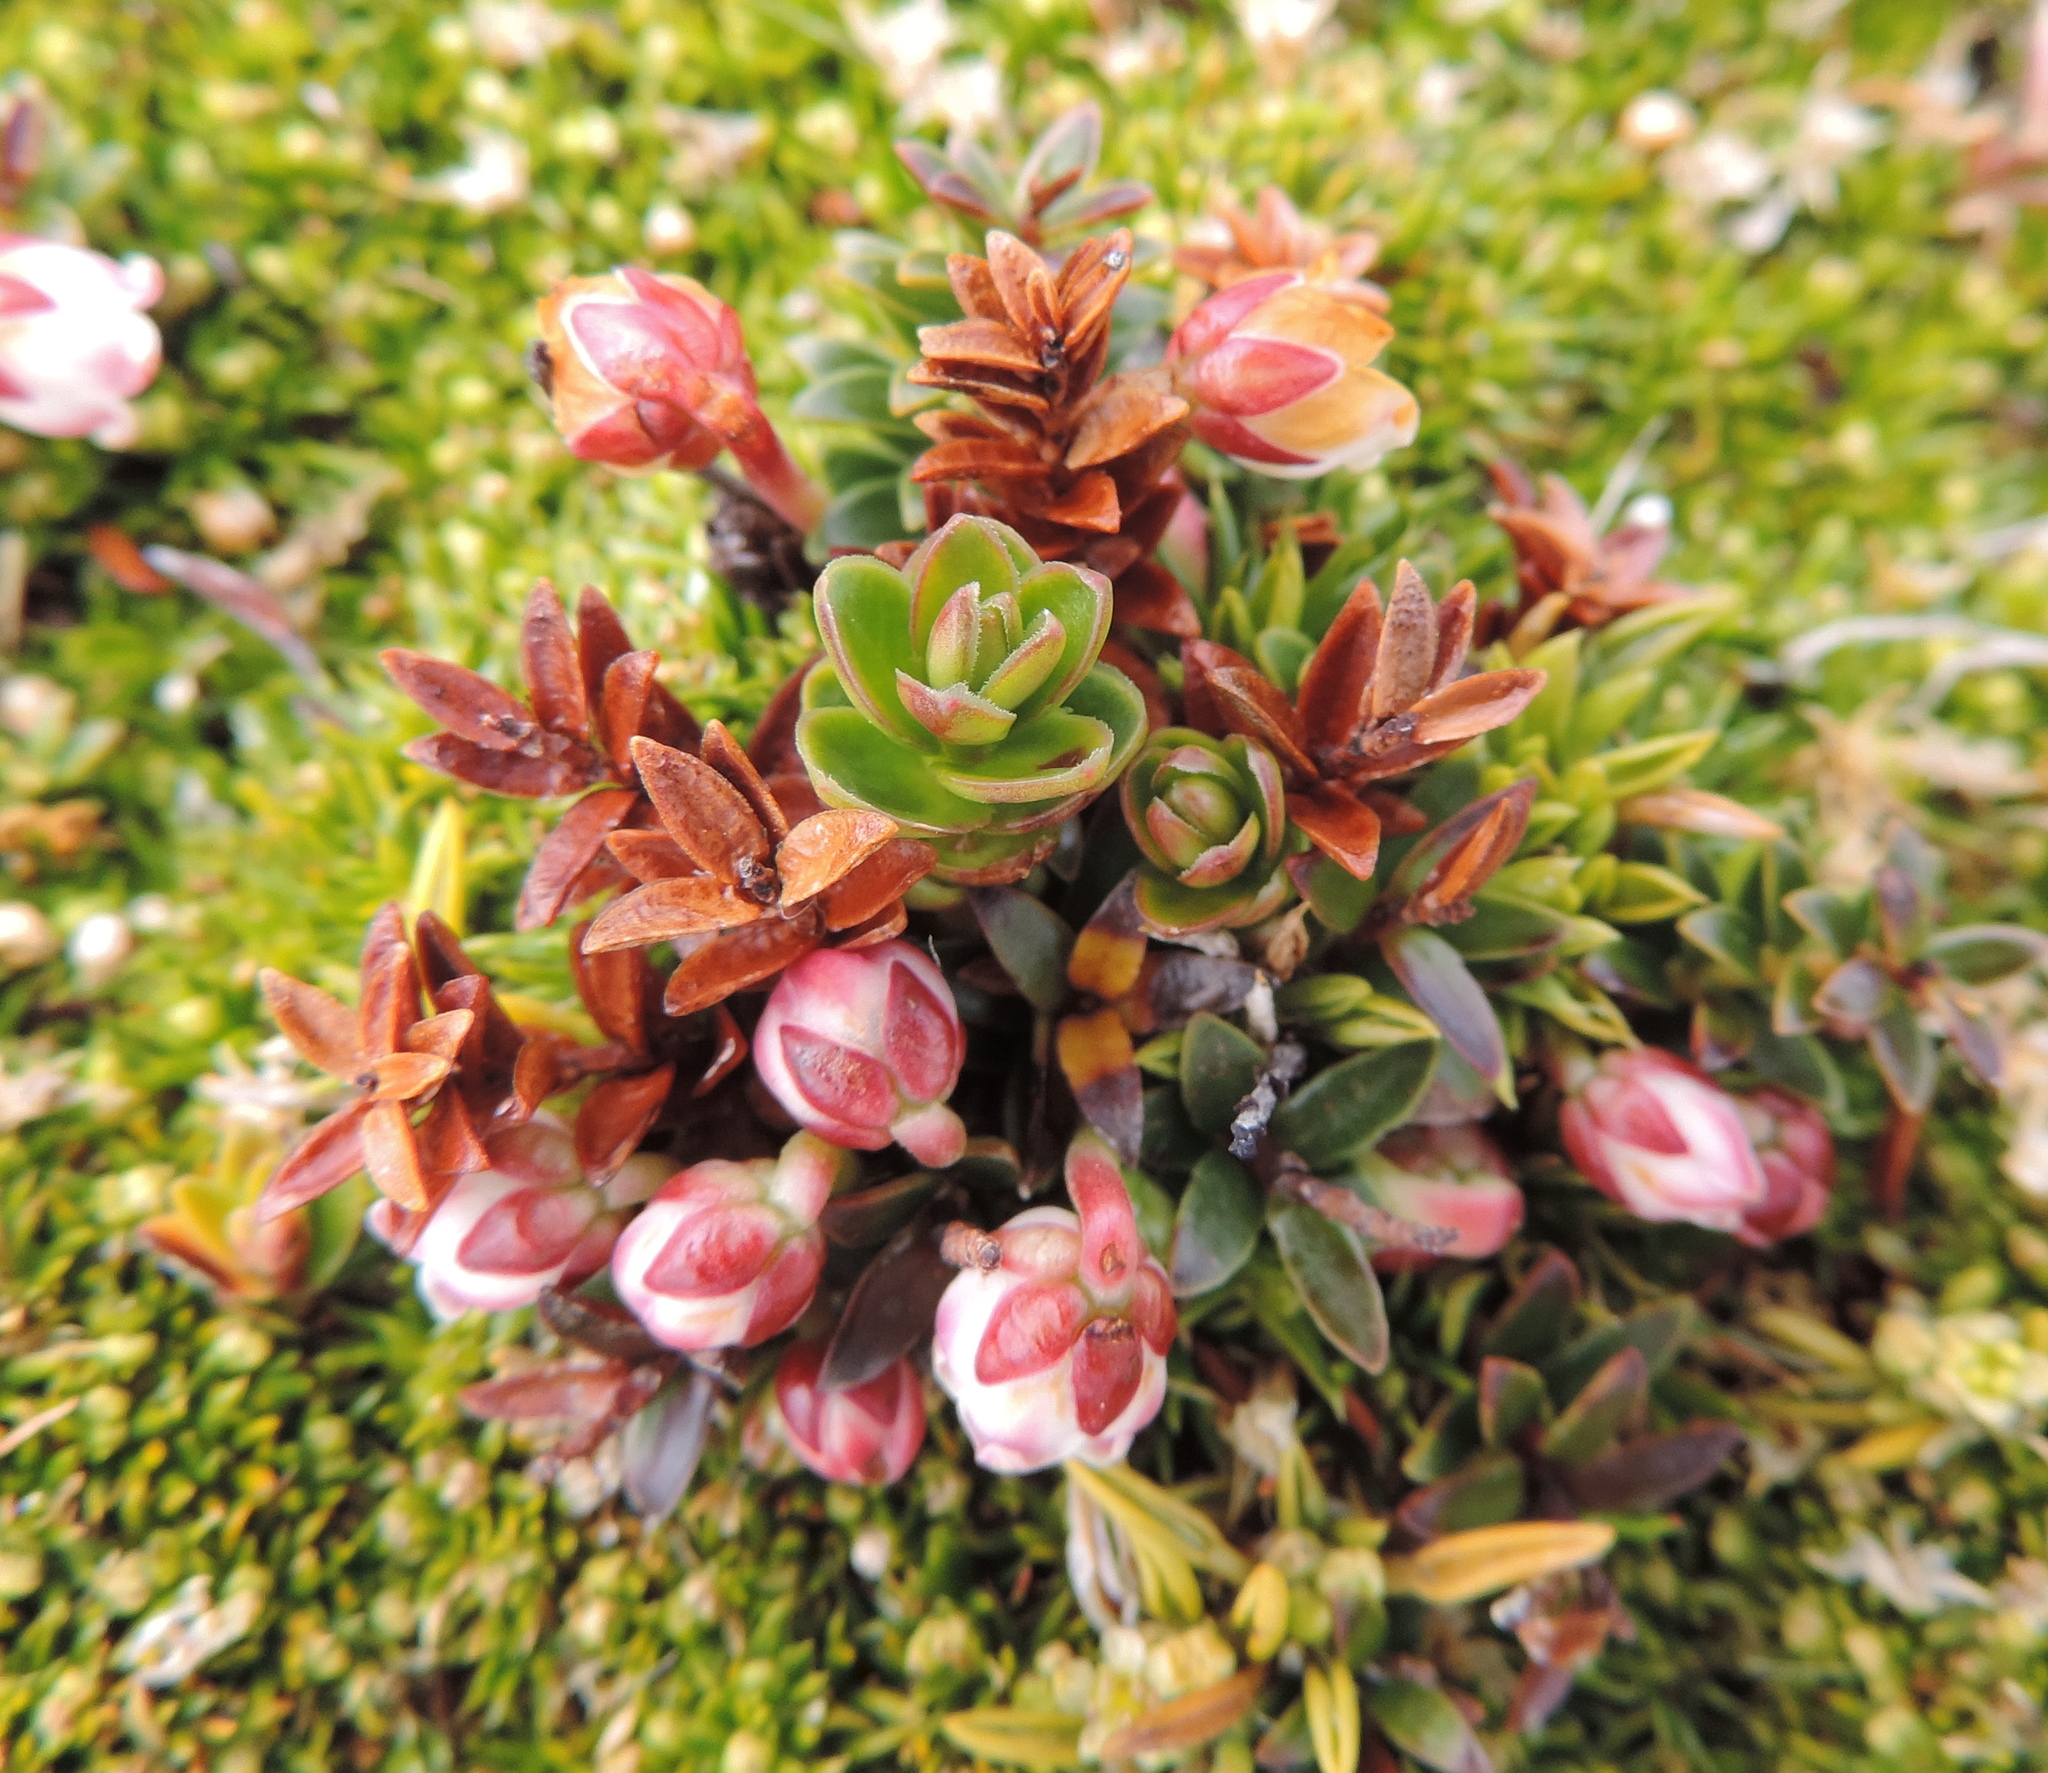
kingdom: Plantae
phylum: Tracheophyta
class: Magnoliopsida
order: Ericales
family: Ericaceae
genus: Gaultheria
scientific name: Gaultheria pumila
